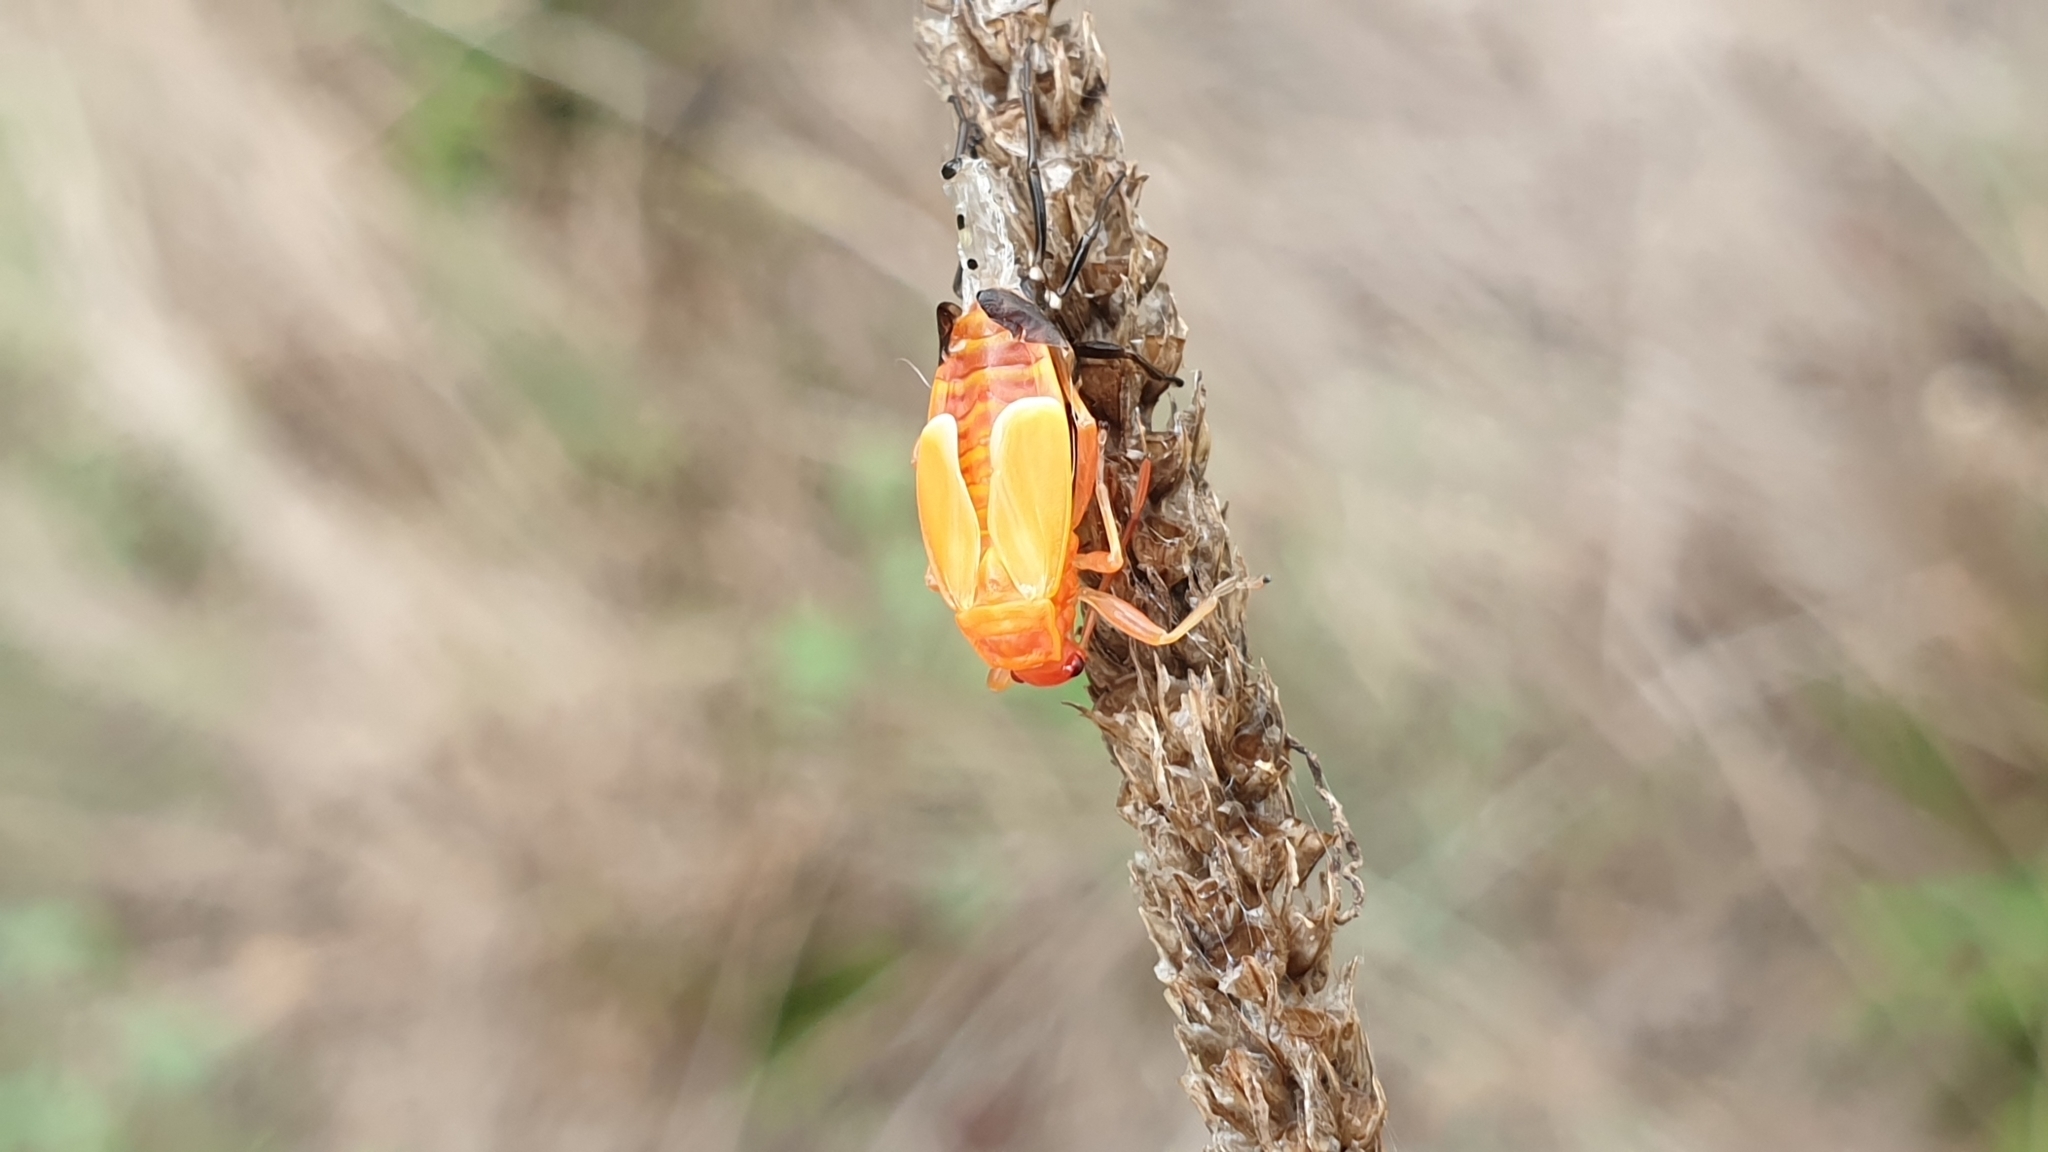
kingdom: Animalia
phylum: Arthropoda
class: Insecta
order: Hemiptera
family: Pyrrhocoridae
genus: Pyrrhocoris
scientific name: Pyrrhocoris apterus
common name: Firebug
